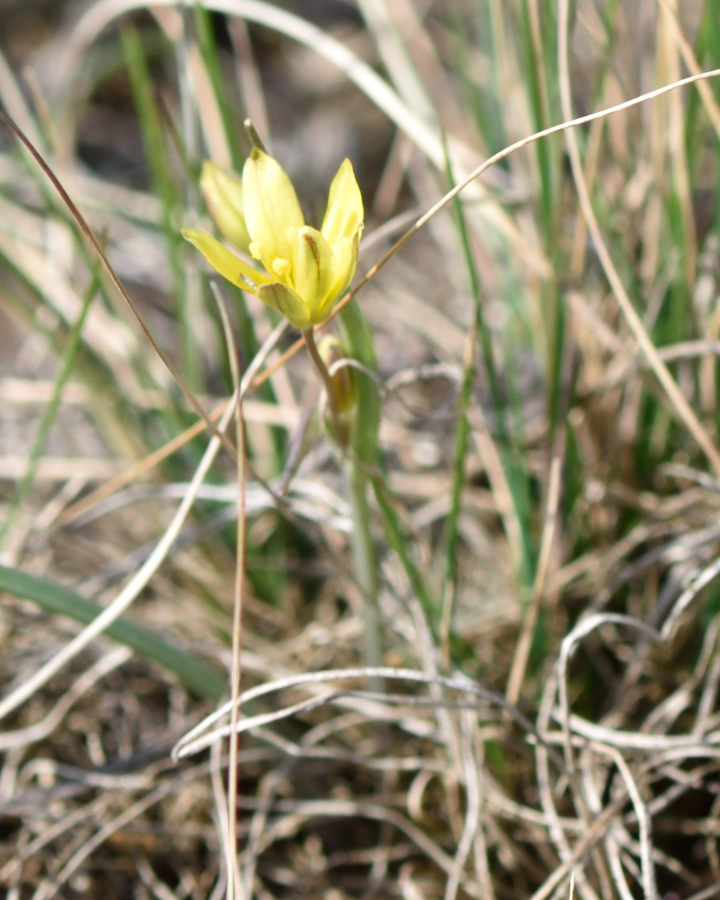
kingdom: Plantae
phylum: Tracheophyta
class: Liliopsida
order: Liliales
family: Liliaceae
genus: Gagea
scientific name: Gagea fragifera
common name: Lily
